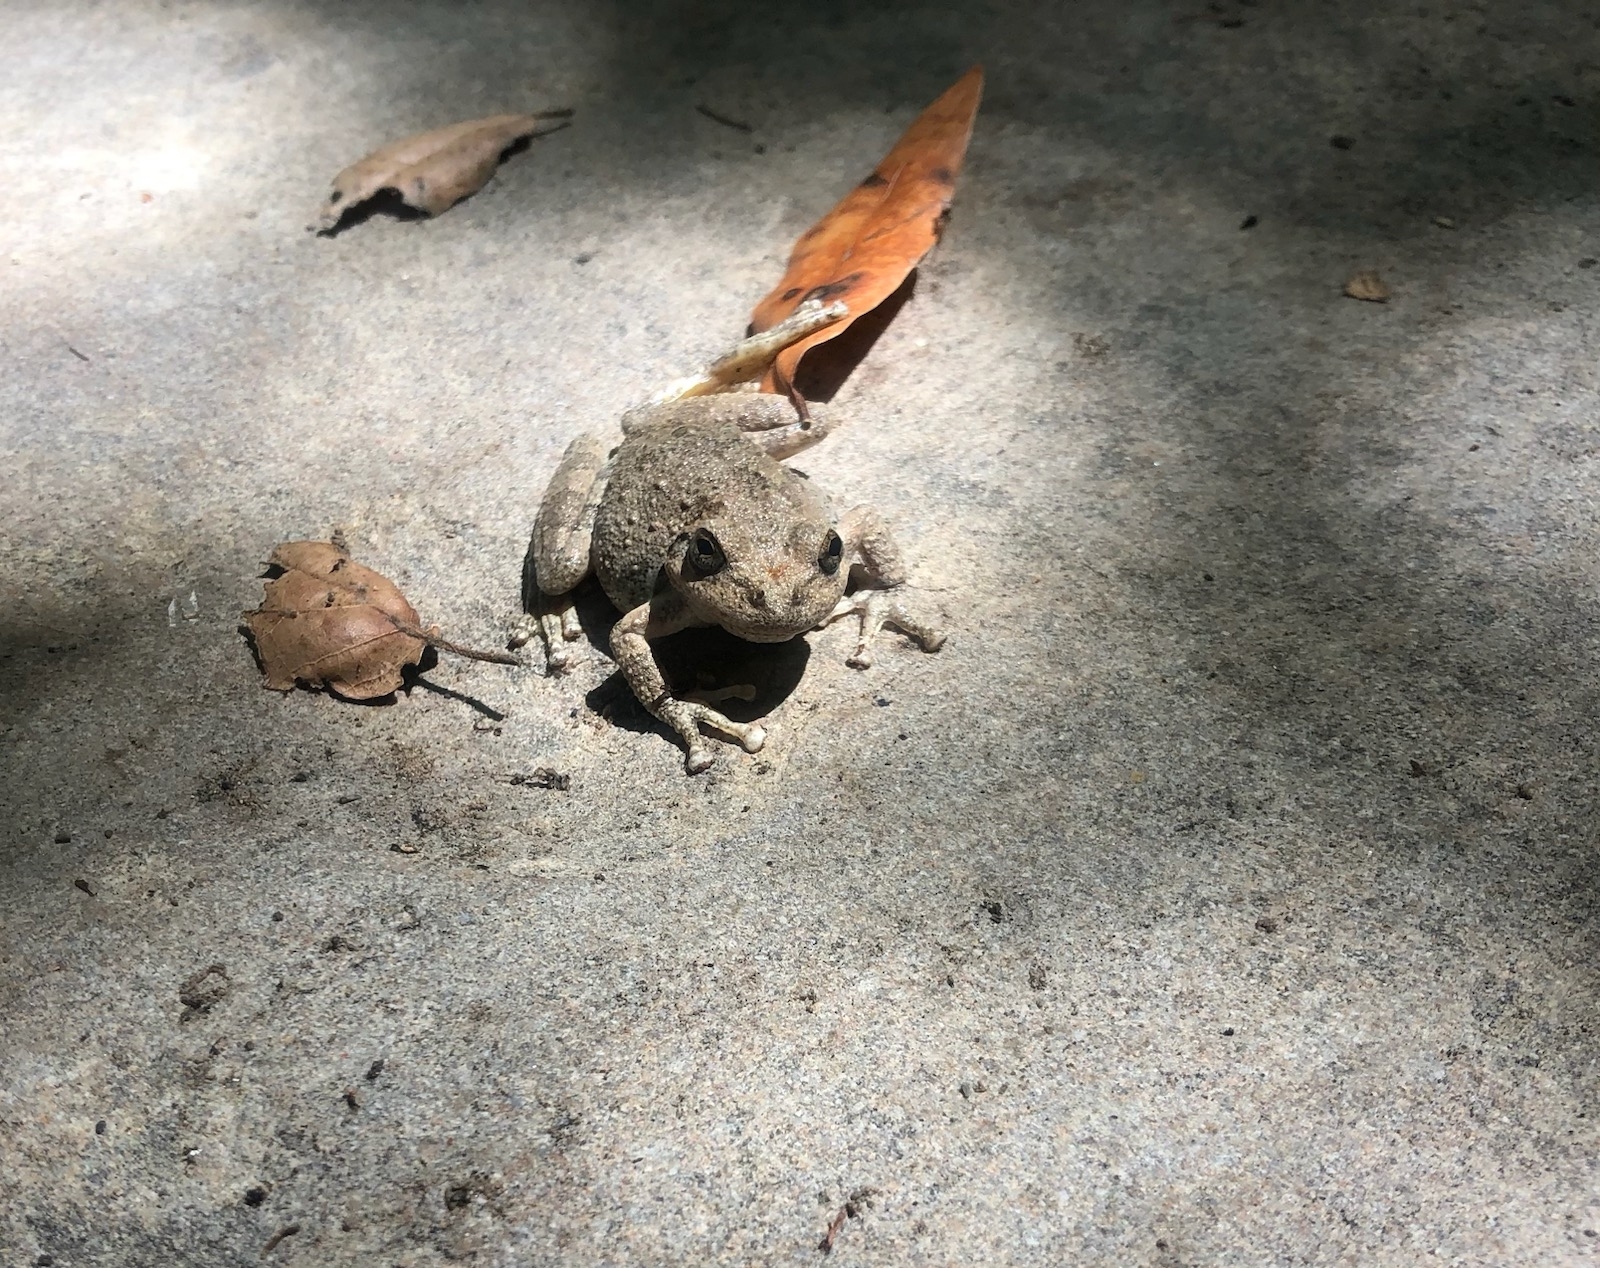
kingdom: Animalia
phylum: Chordata
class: Amphibia
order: Anura
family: Hylidae
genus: Pseudacris
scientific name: Pseudacris cadaverina
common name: California chorus frog
